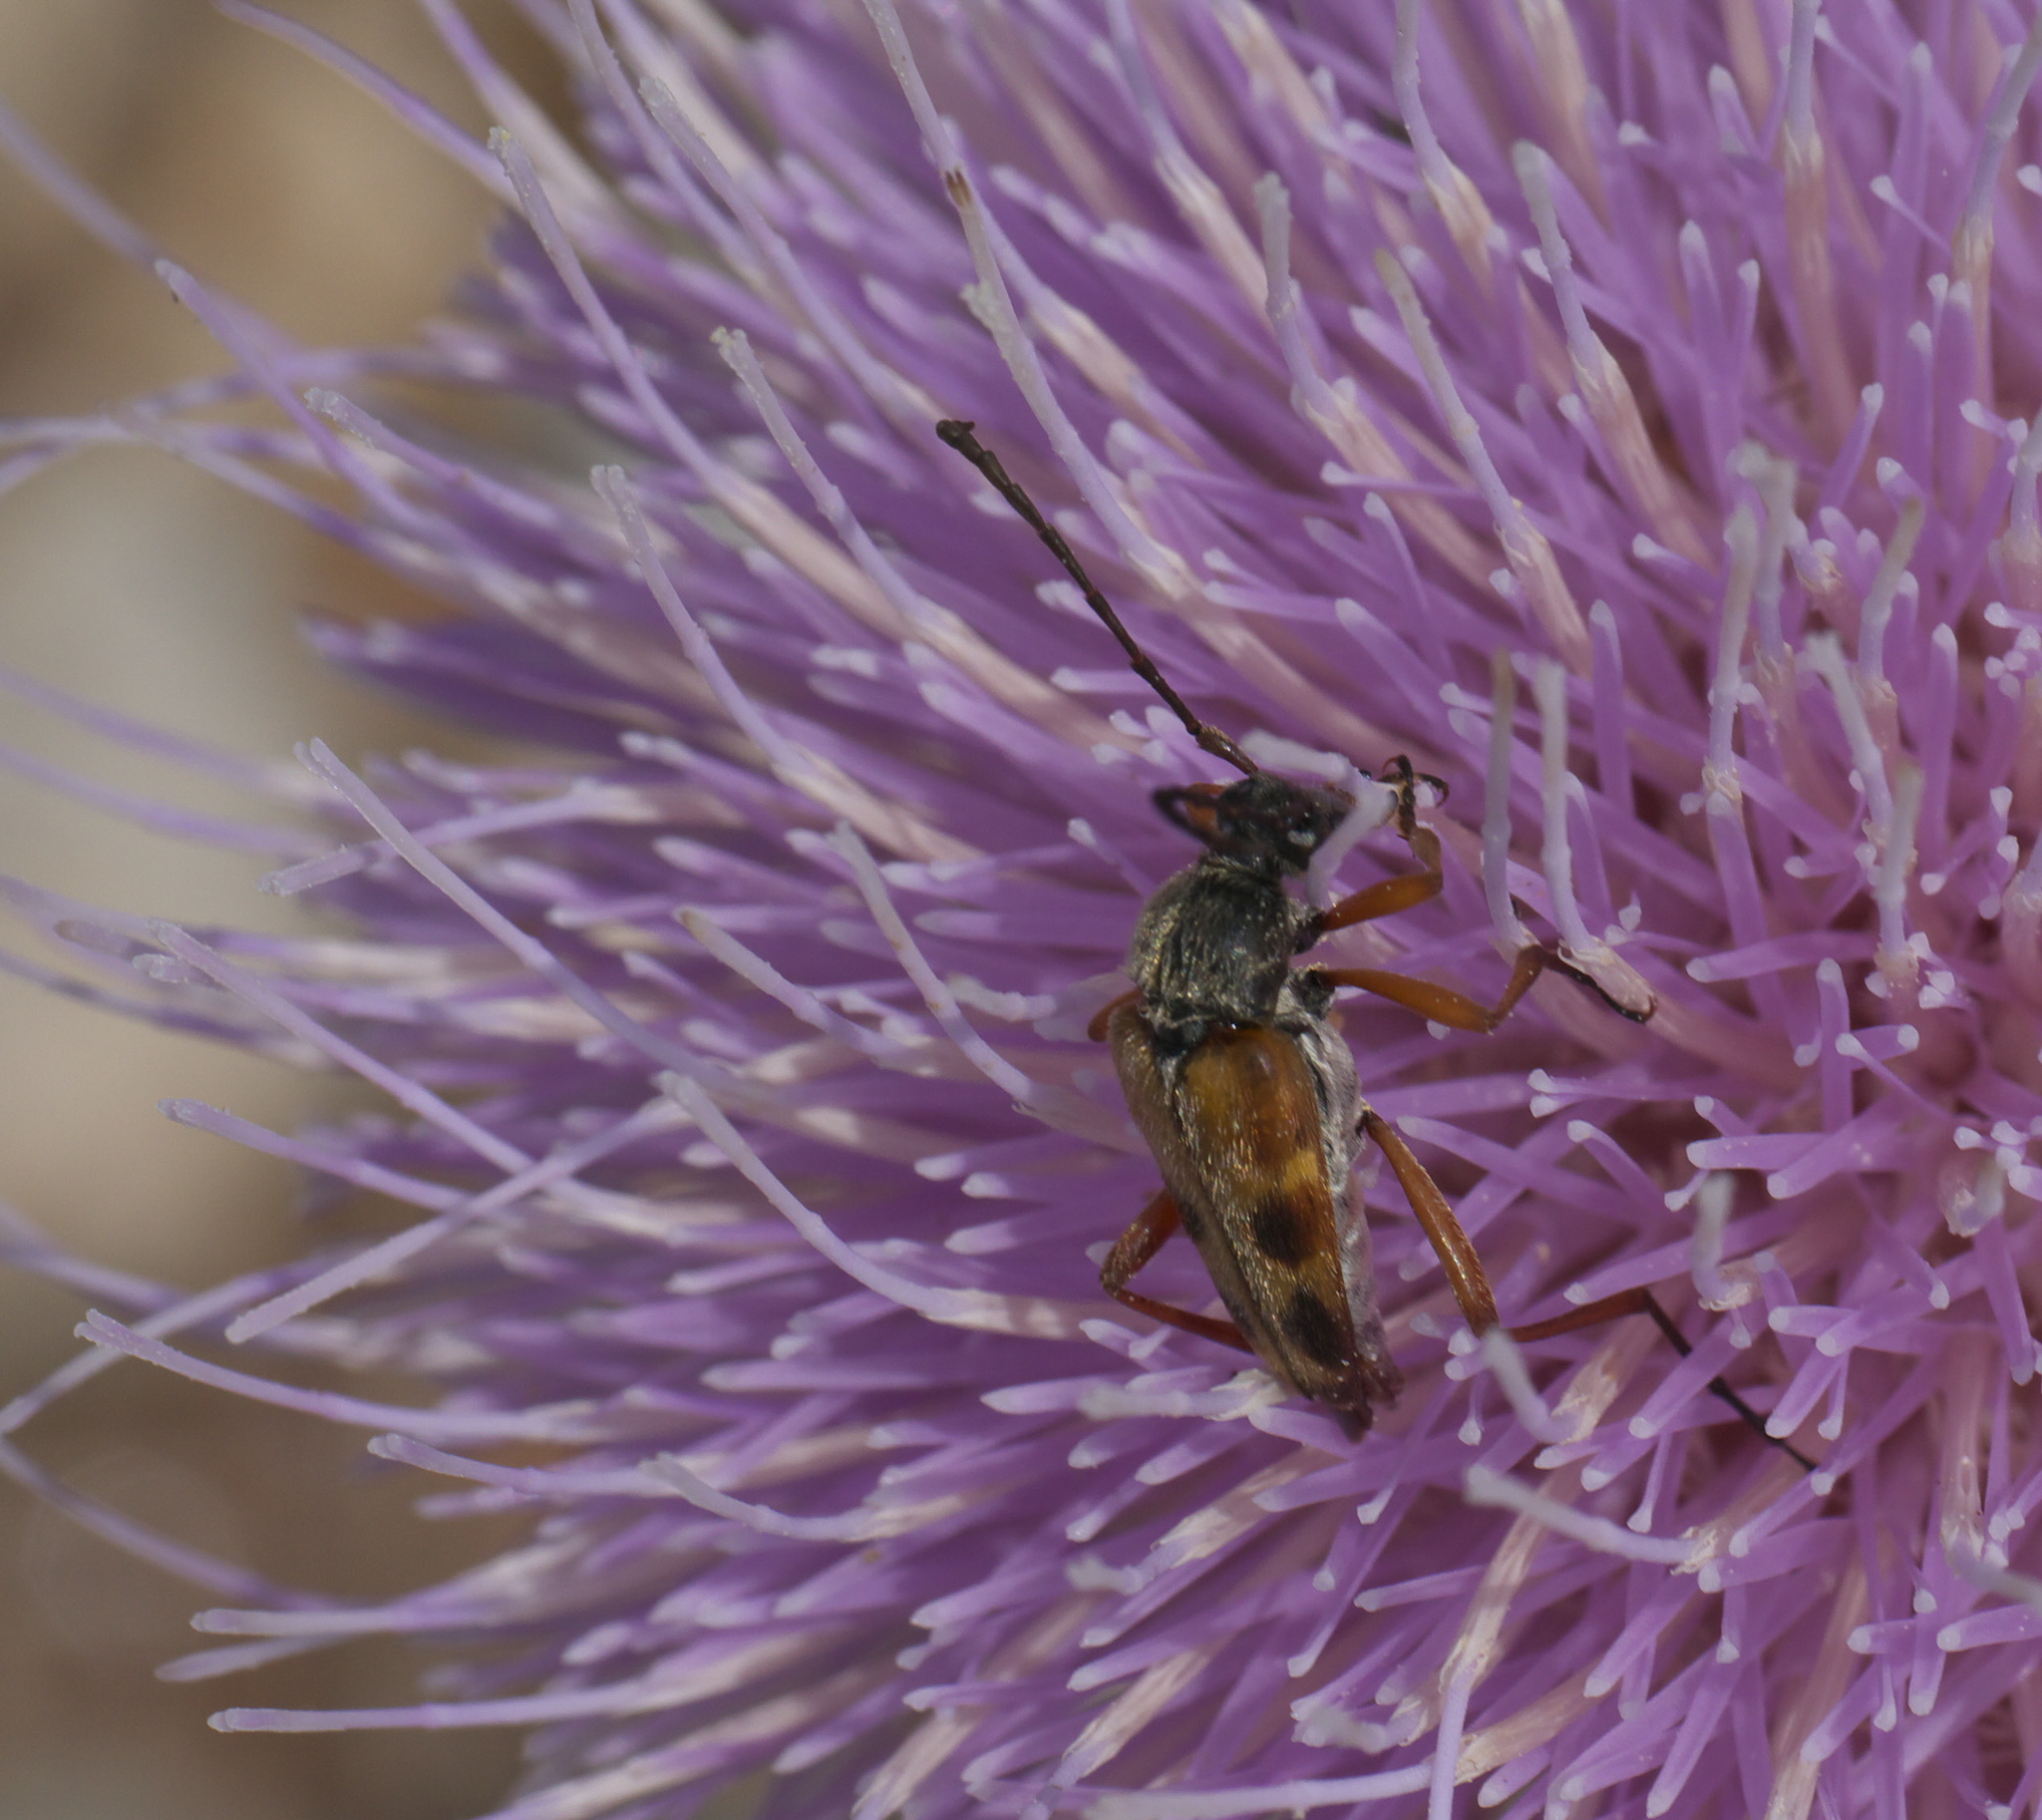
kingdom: Animalia
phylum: Arthropoda
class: Insecta
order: Coleoptera
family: Cerambycidae
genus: Typocerus
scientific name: Typocerus octonotatus
